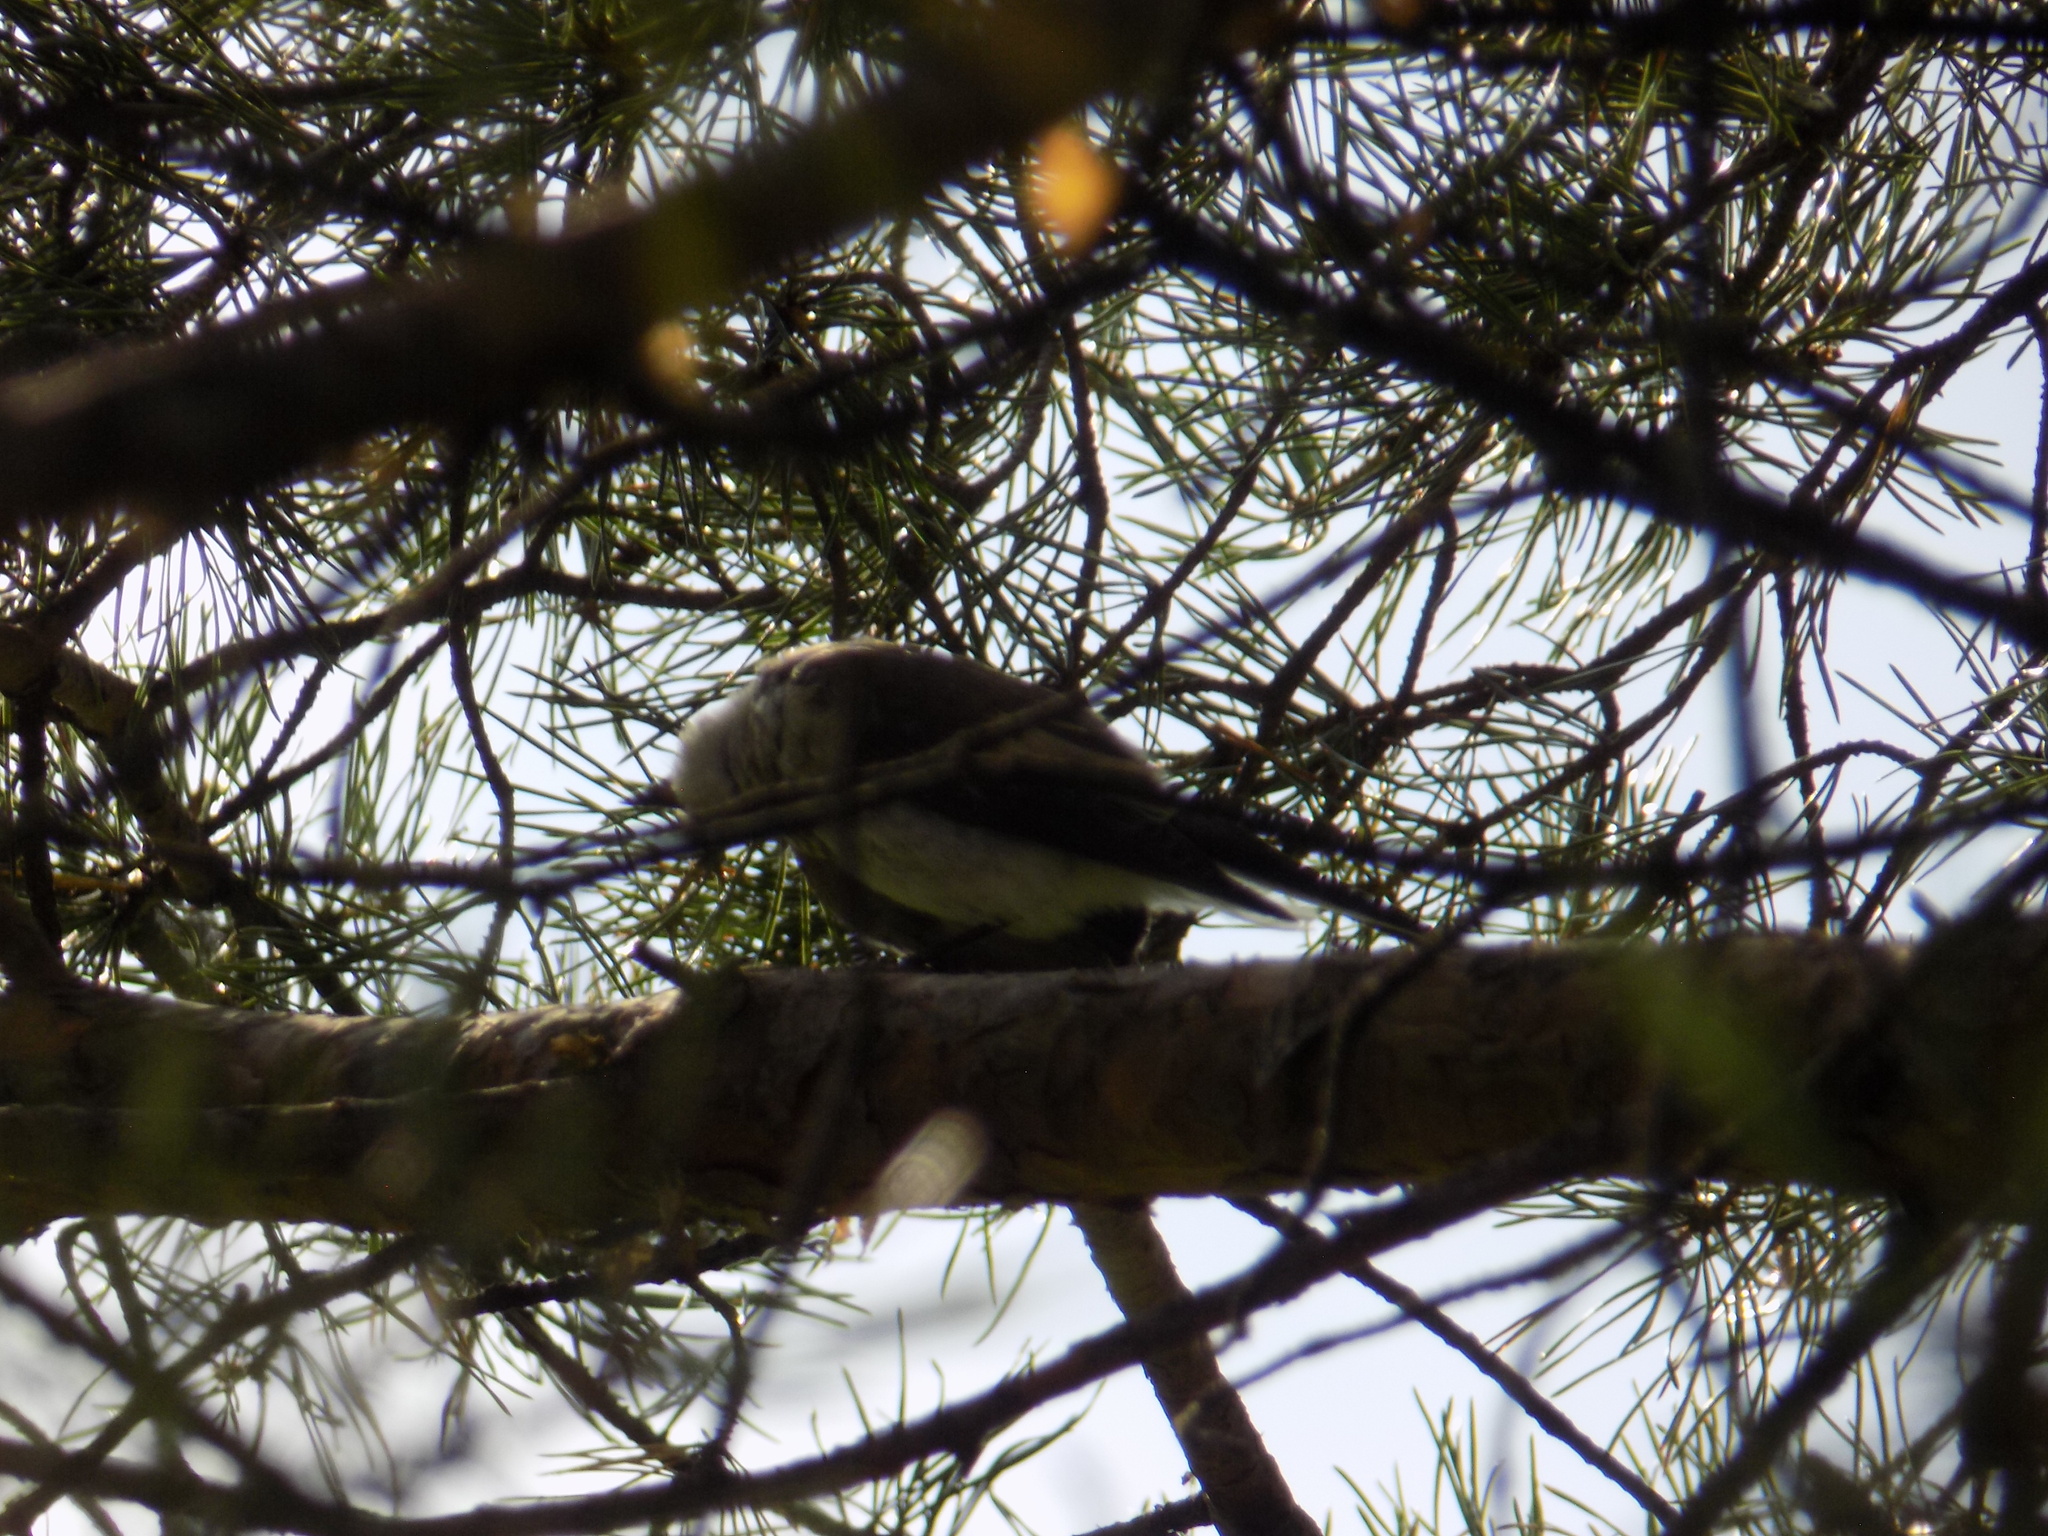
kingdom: Animalia
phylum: Chordata
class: Aves
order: Passeriformes
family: Muscicapidae
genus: Ficedula
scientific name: Ficedula hypoleuca
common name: European pied flycatcher
